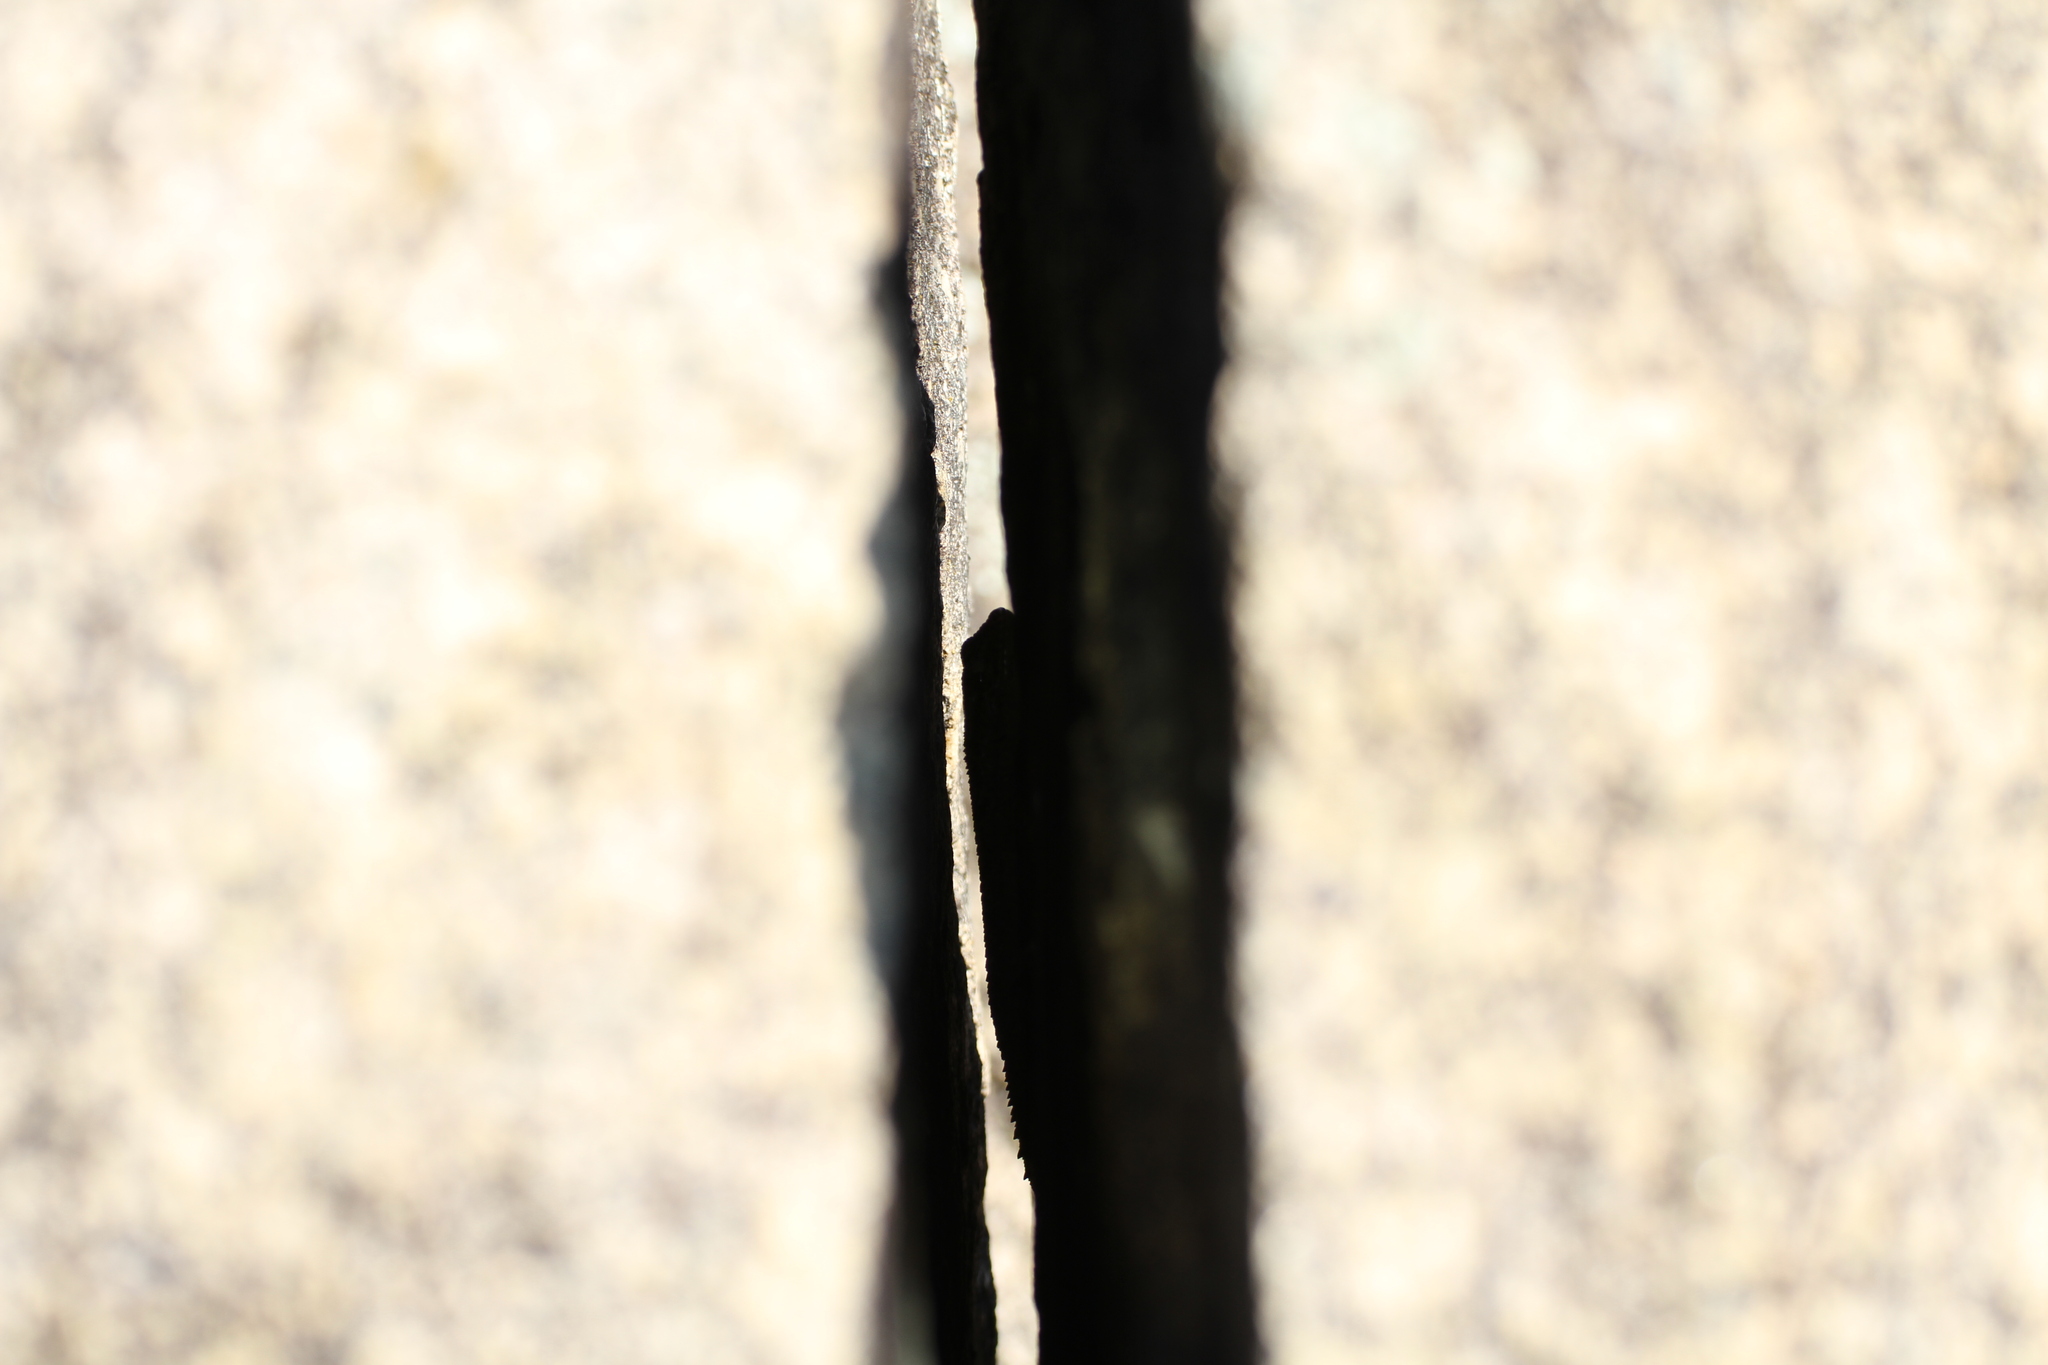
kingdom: Animalia
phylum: Chordata
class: Squamata
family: Phyllodactylidae
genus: Tarentola
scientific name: Tarentola mauritanica
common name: Moorish gecko
